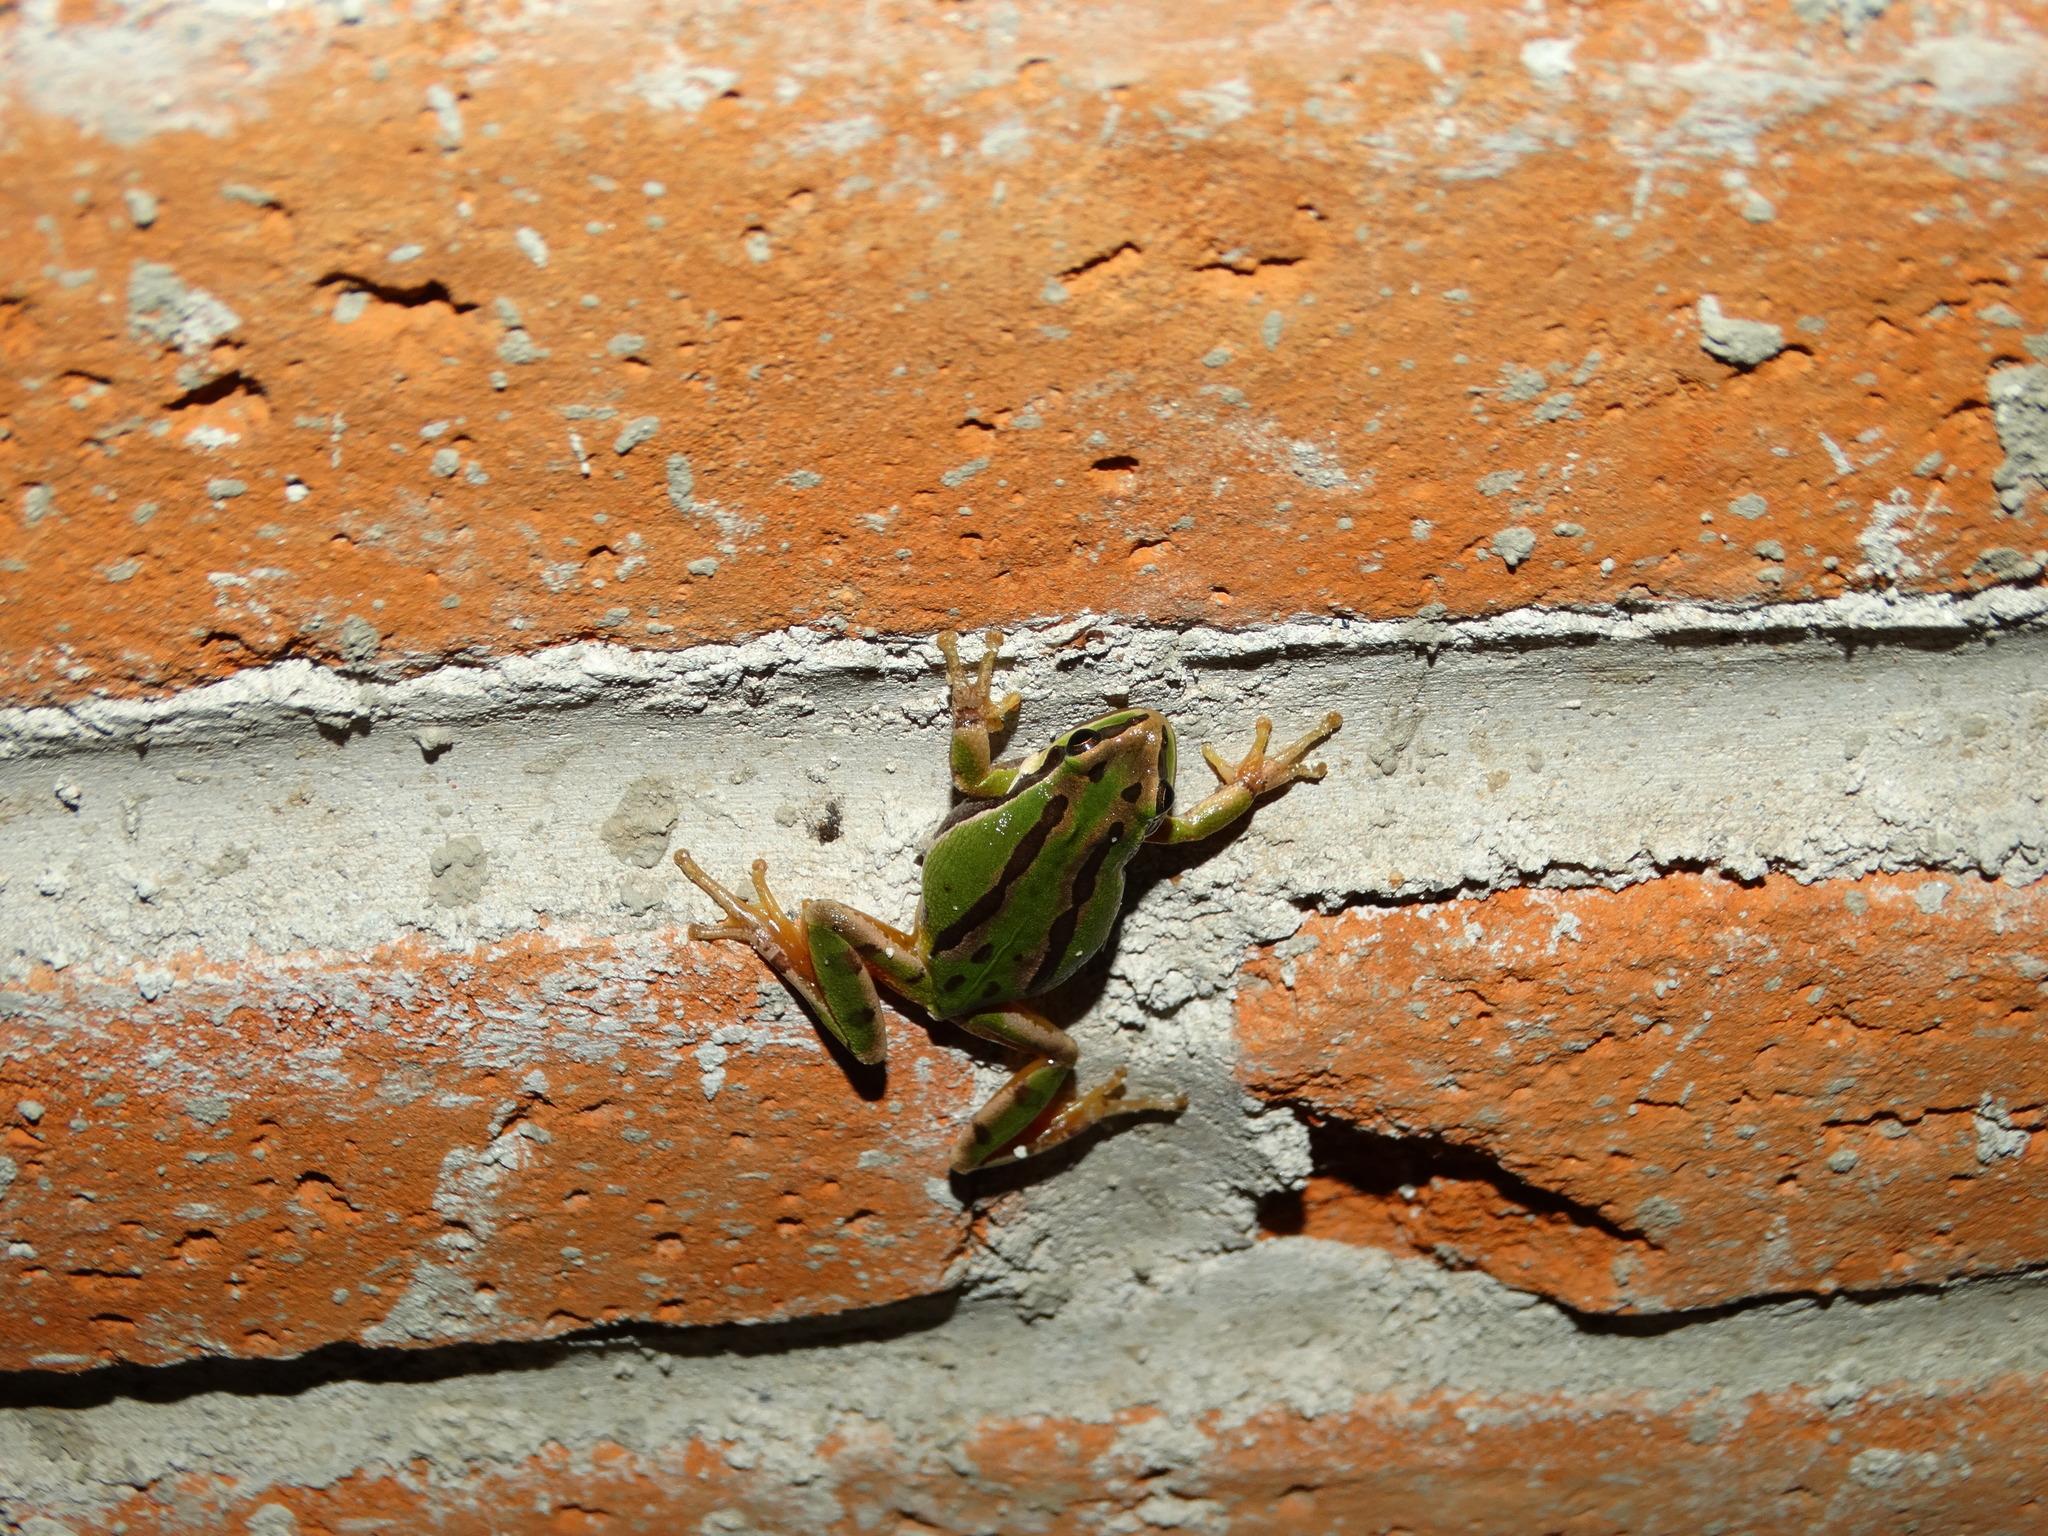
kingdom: Animalia
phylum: Chordata
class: Amphibia
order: Anura
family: Hylidae
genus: Dryophytes
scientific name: Dryophytes eximius
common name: Mountain treefrog
